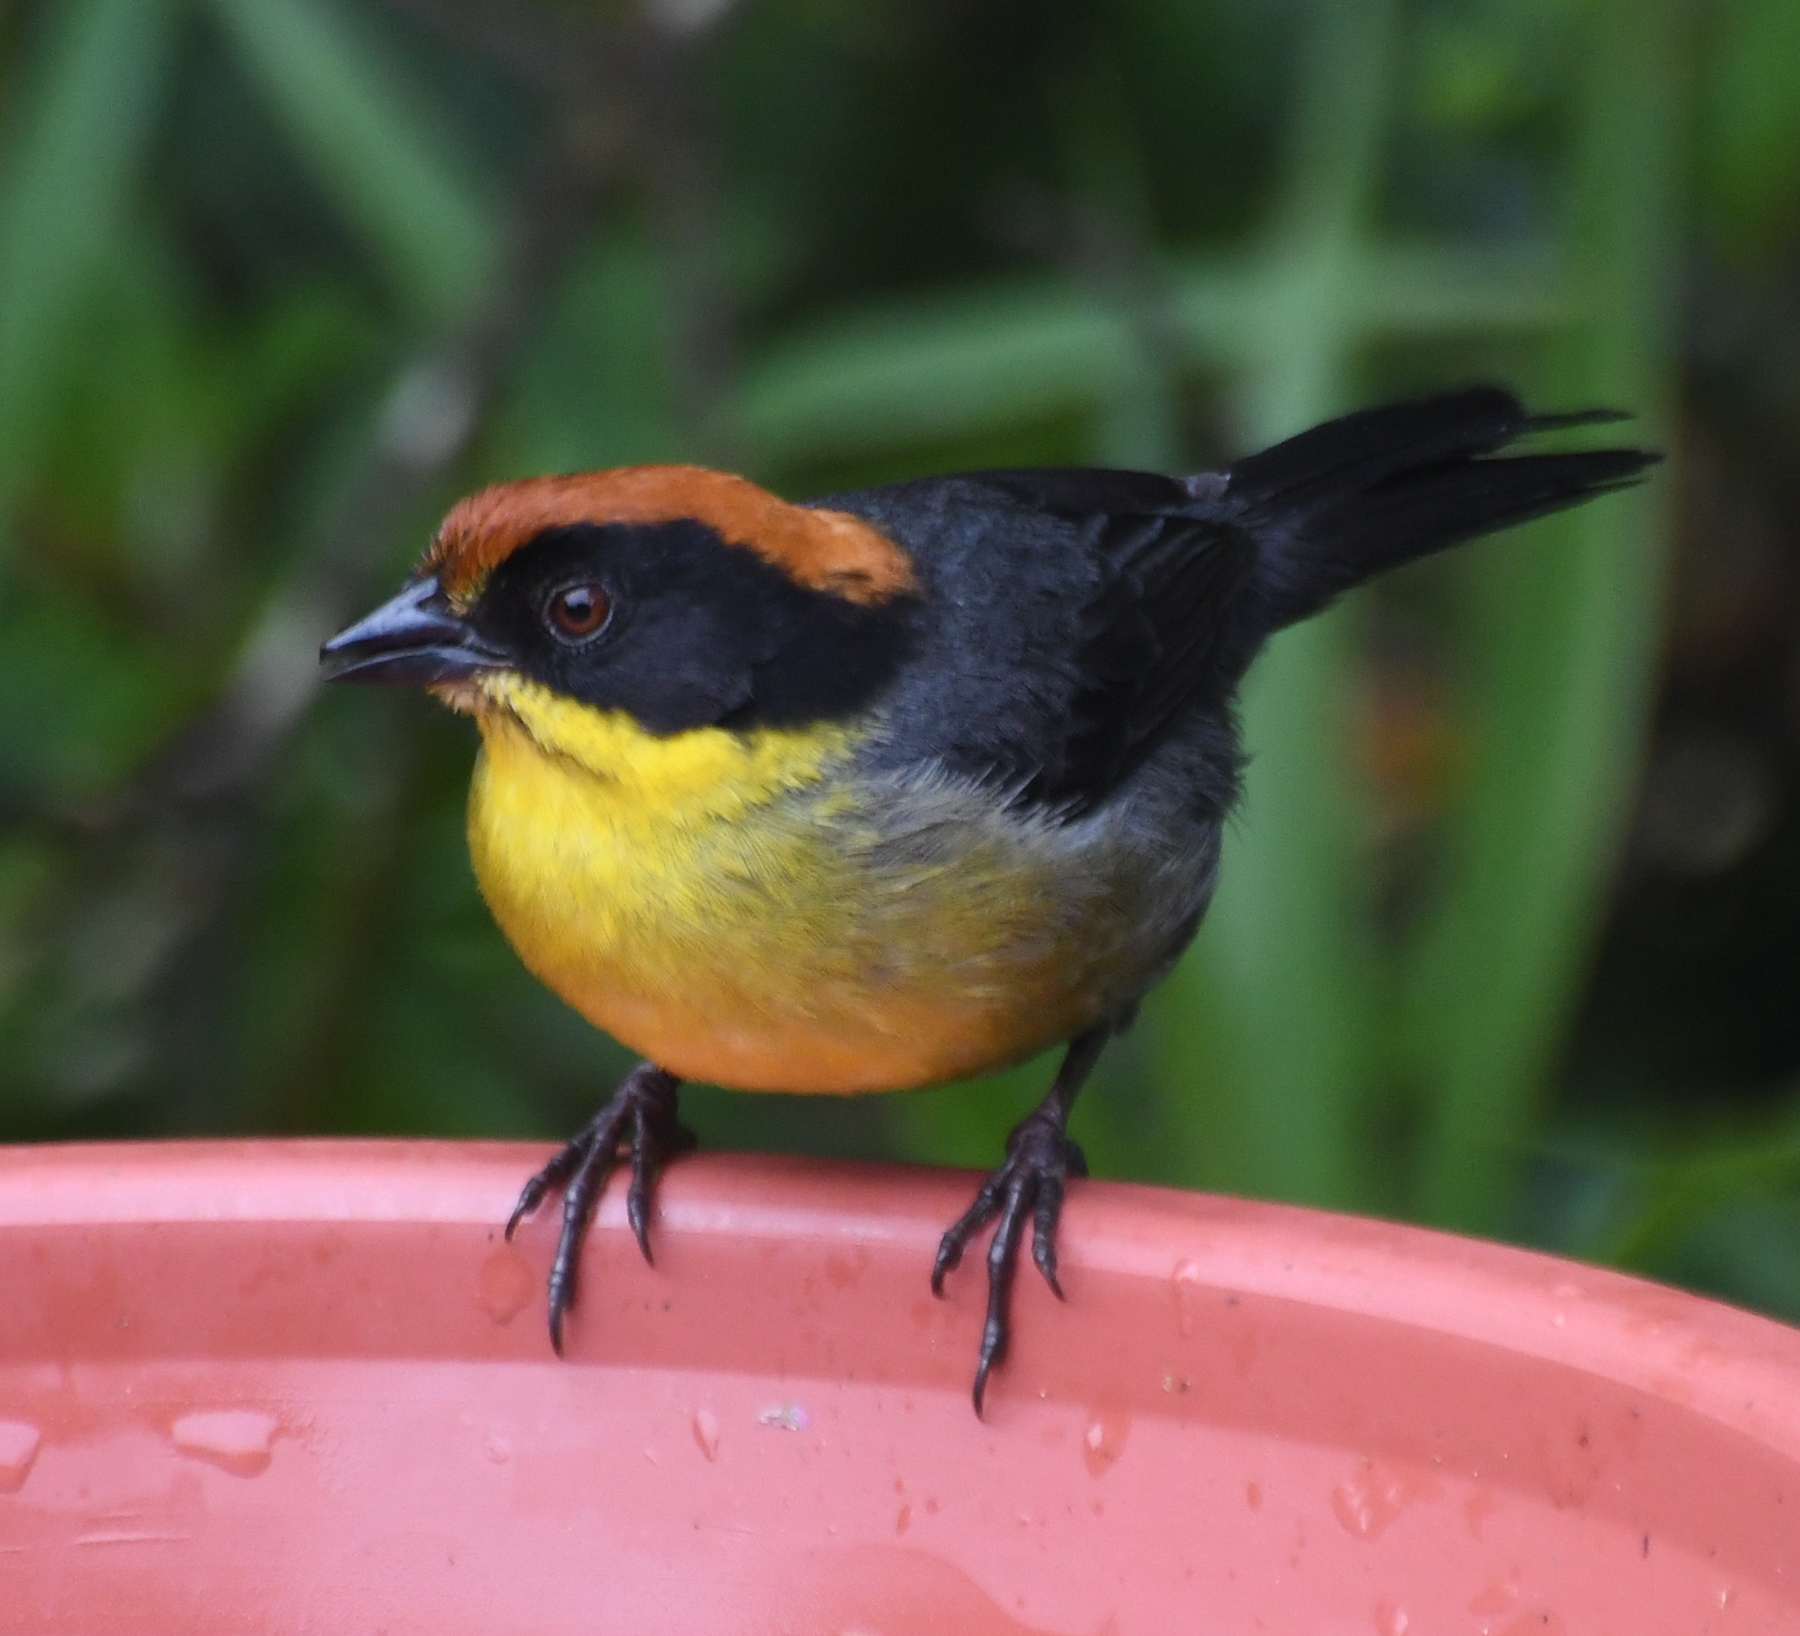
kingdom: Animalia
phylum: Chordata
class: Aves
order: Passeriformes
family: Passerellidae
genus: Atlapetes
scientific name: Atlapetes latinuchus
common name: Yellow-breasted brushfinch
